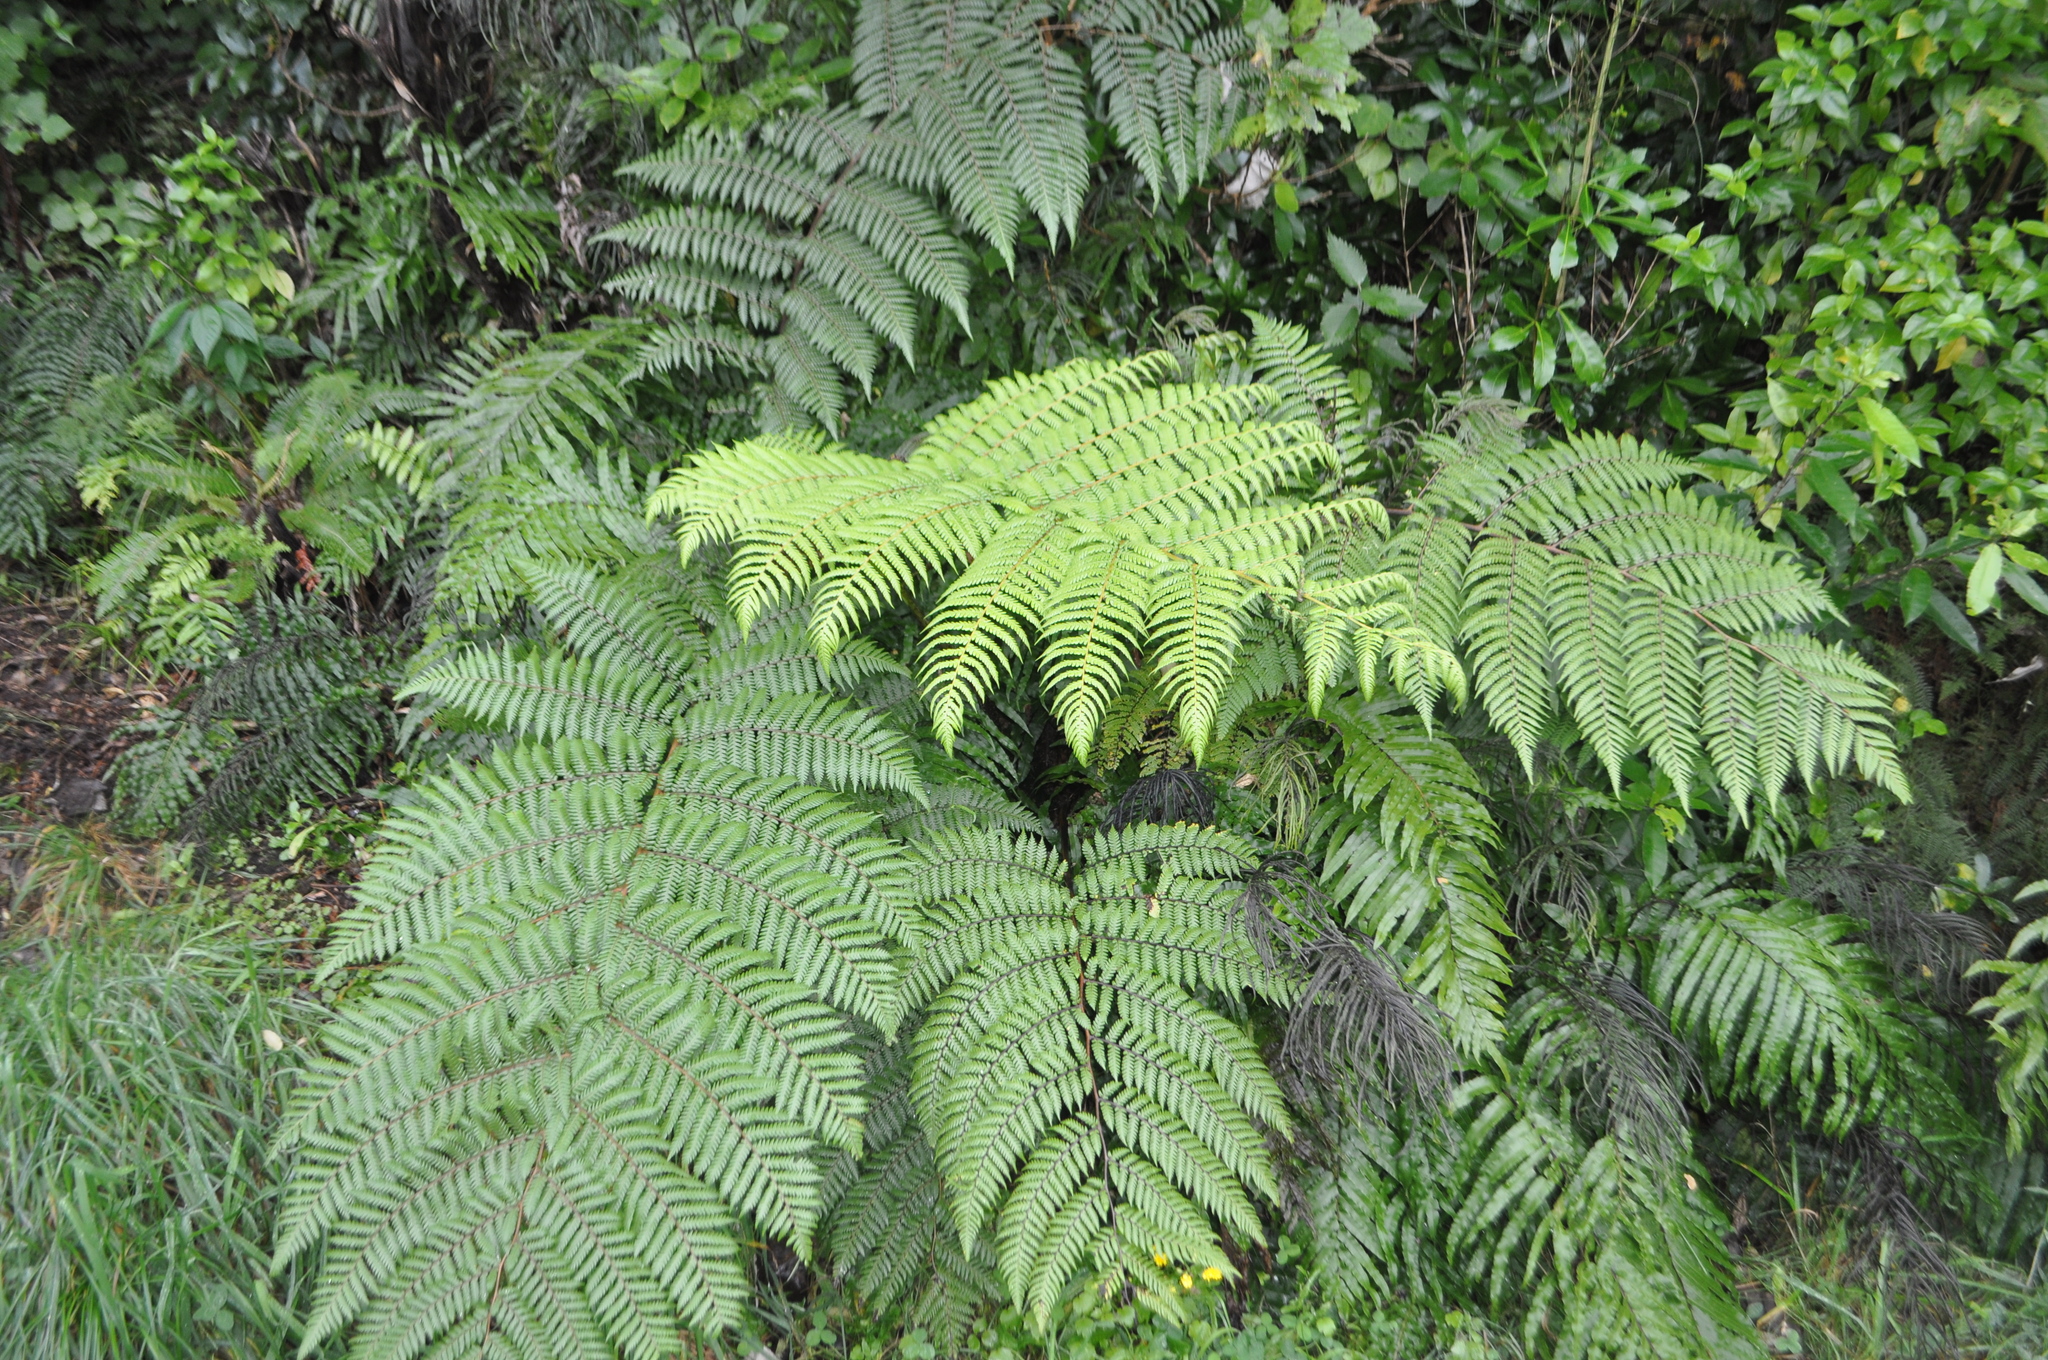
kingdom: Plantae
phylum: Tracheophyta
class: Polypodiopsida
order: Cyatheales
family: Cyatheaceae
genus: Sphaeropteris
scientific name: Sphaeropteris medullaris
